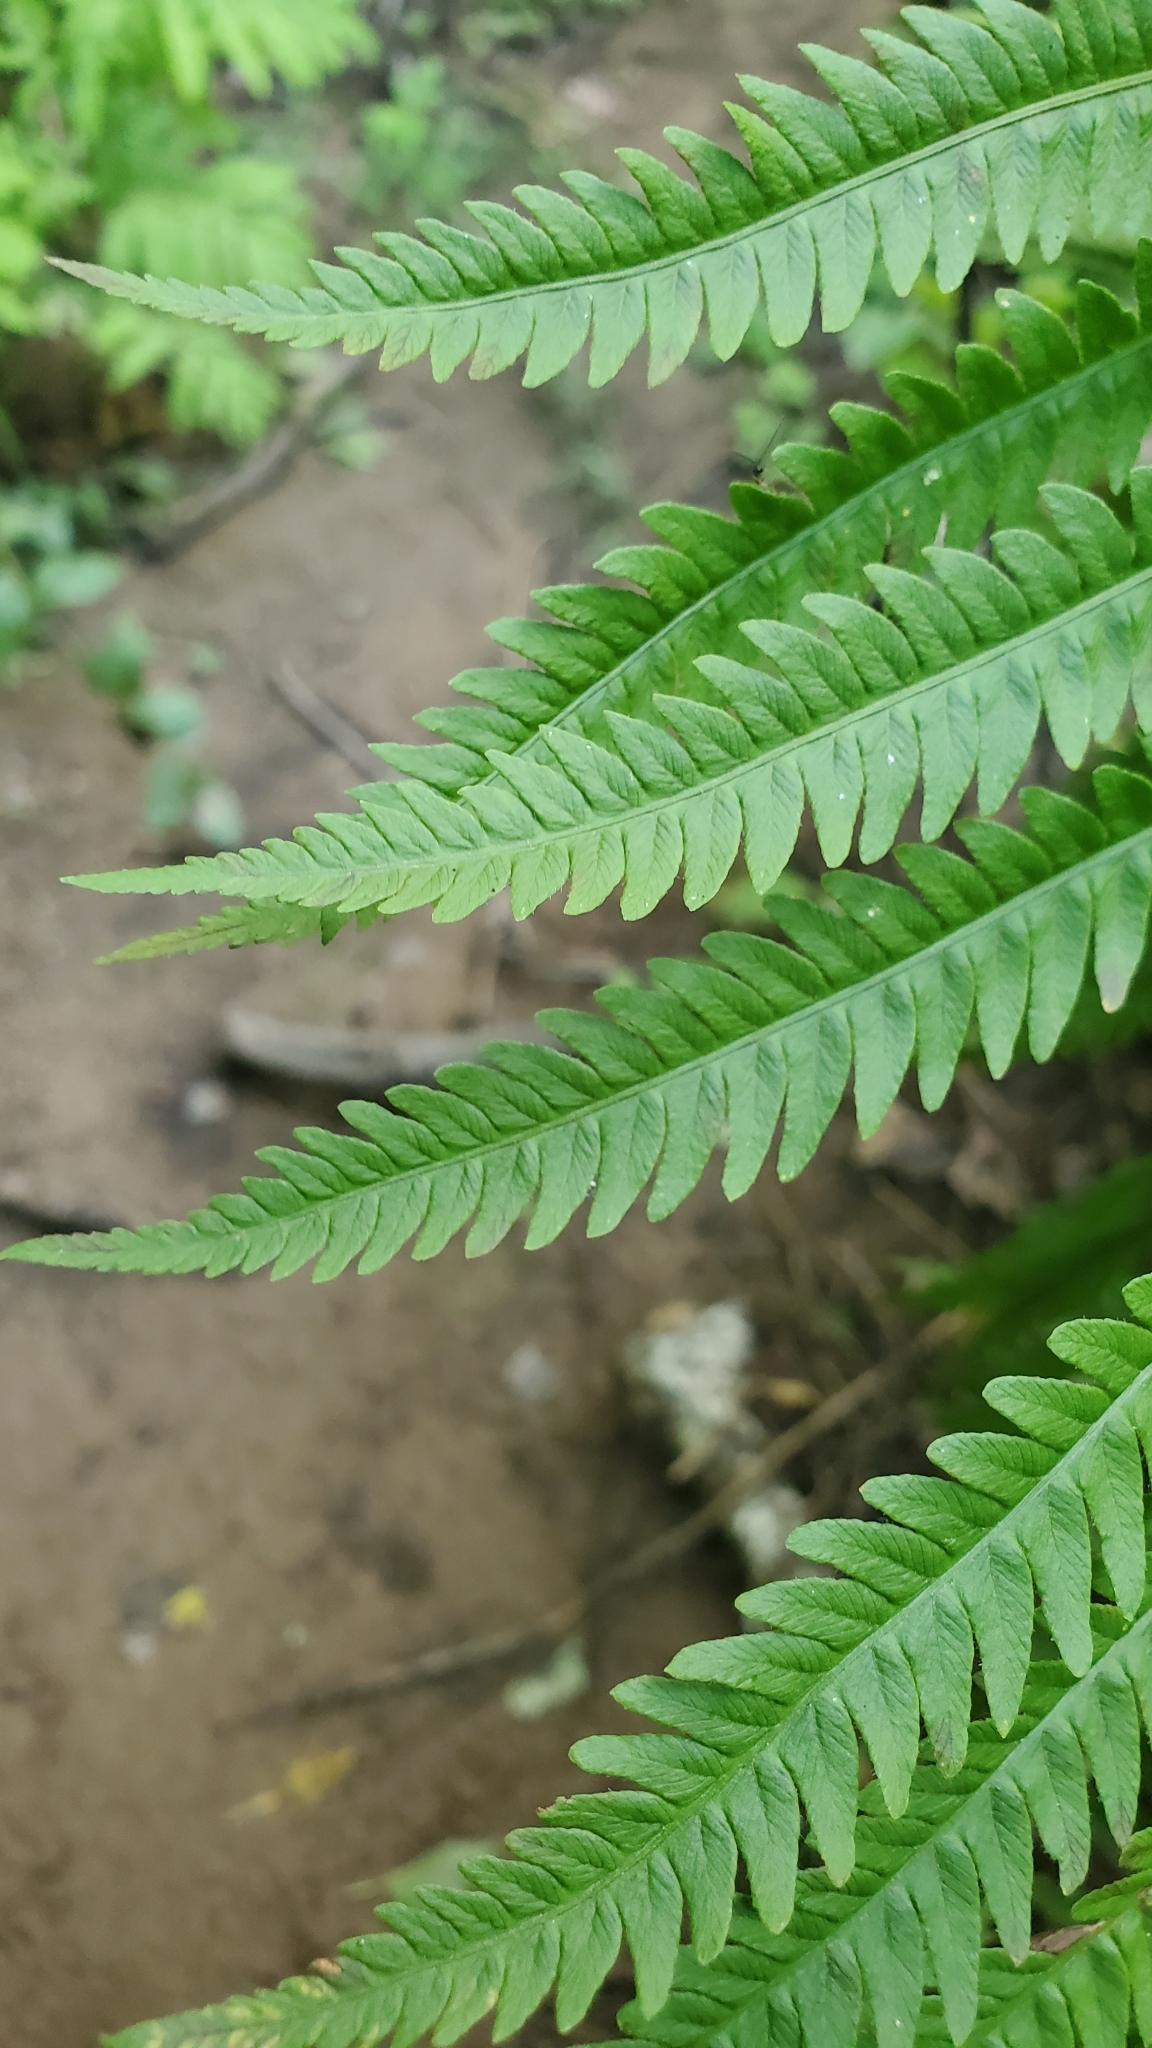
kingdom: Plantae
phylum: Tracheophyta
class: Polypodiopsida
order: Polypodiales
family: Onocleaceae
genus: Matteuccia
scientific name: Matteuccia struthiopteris
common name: Ostrich fern
